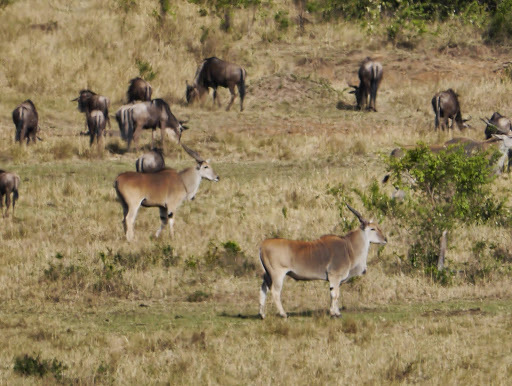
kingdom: Animalia
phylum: Chordata
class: Mammalia
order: Artiodactyla
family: Bovidae
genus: Taurotragus
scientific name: Taurotragus oryx
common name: Common eland
